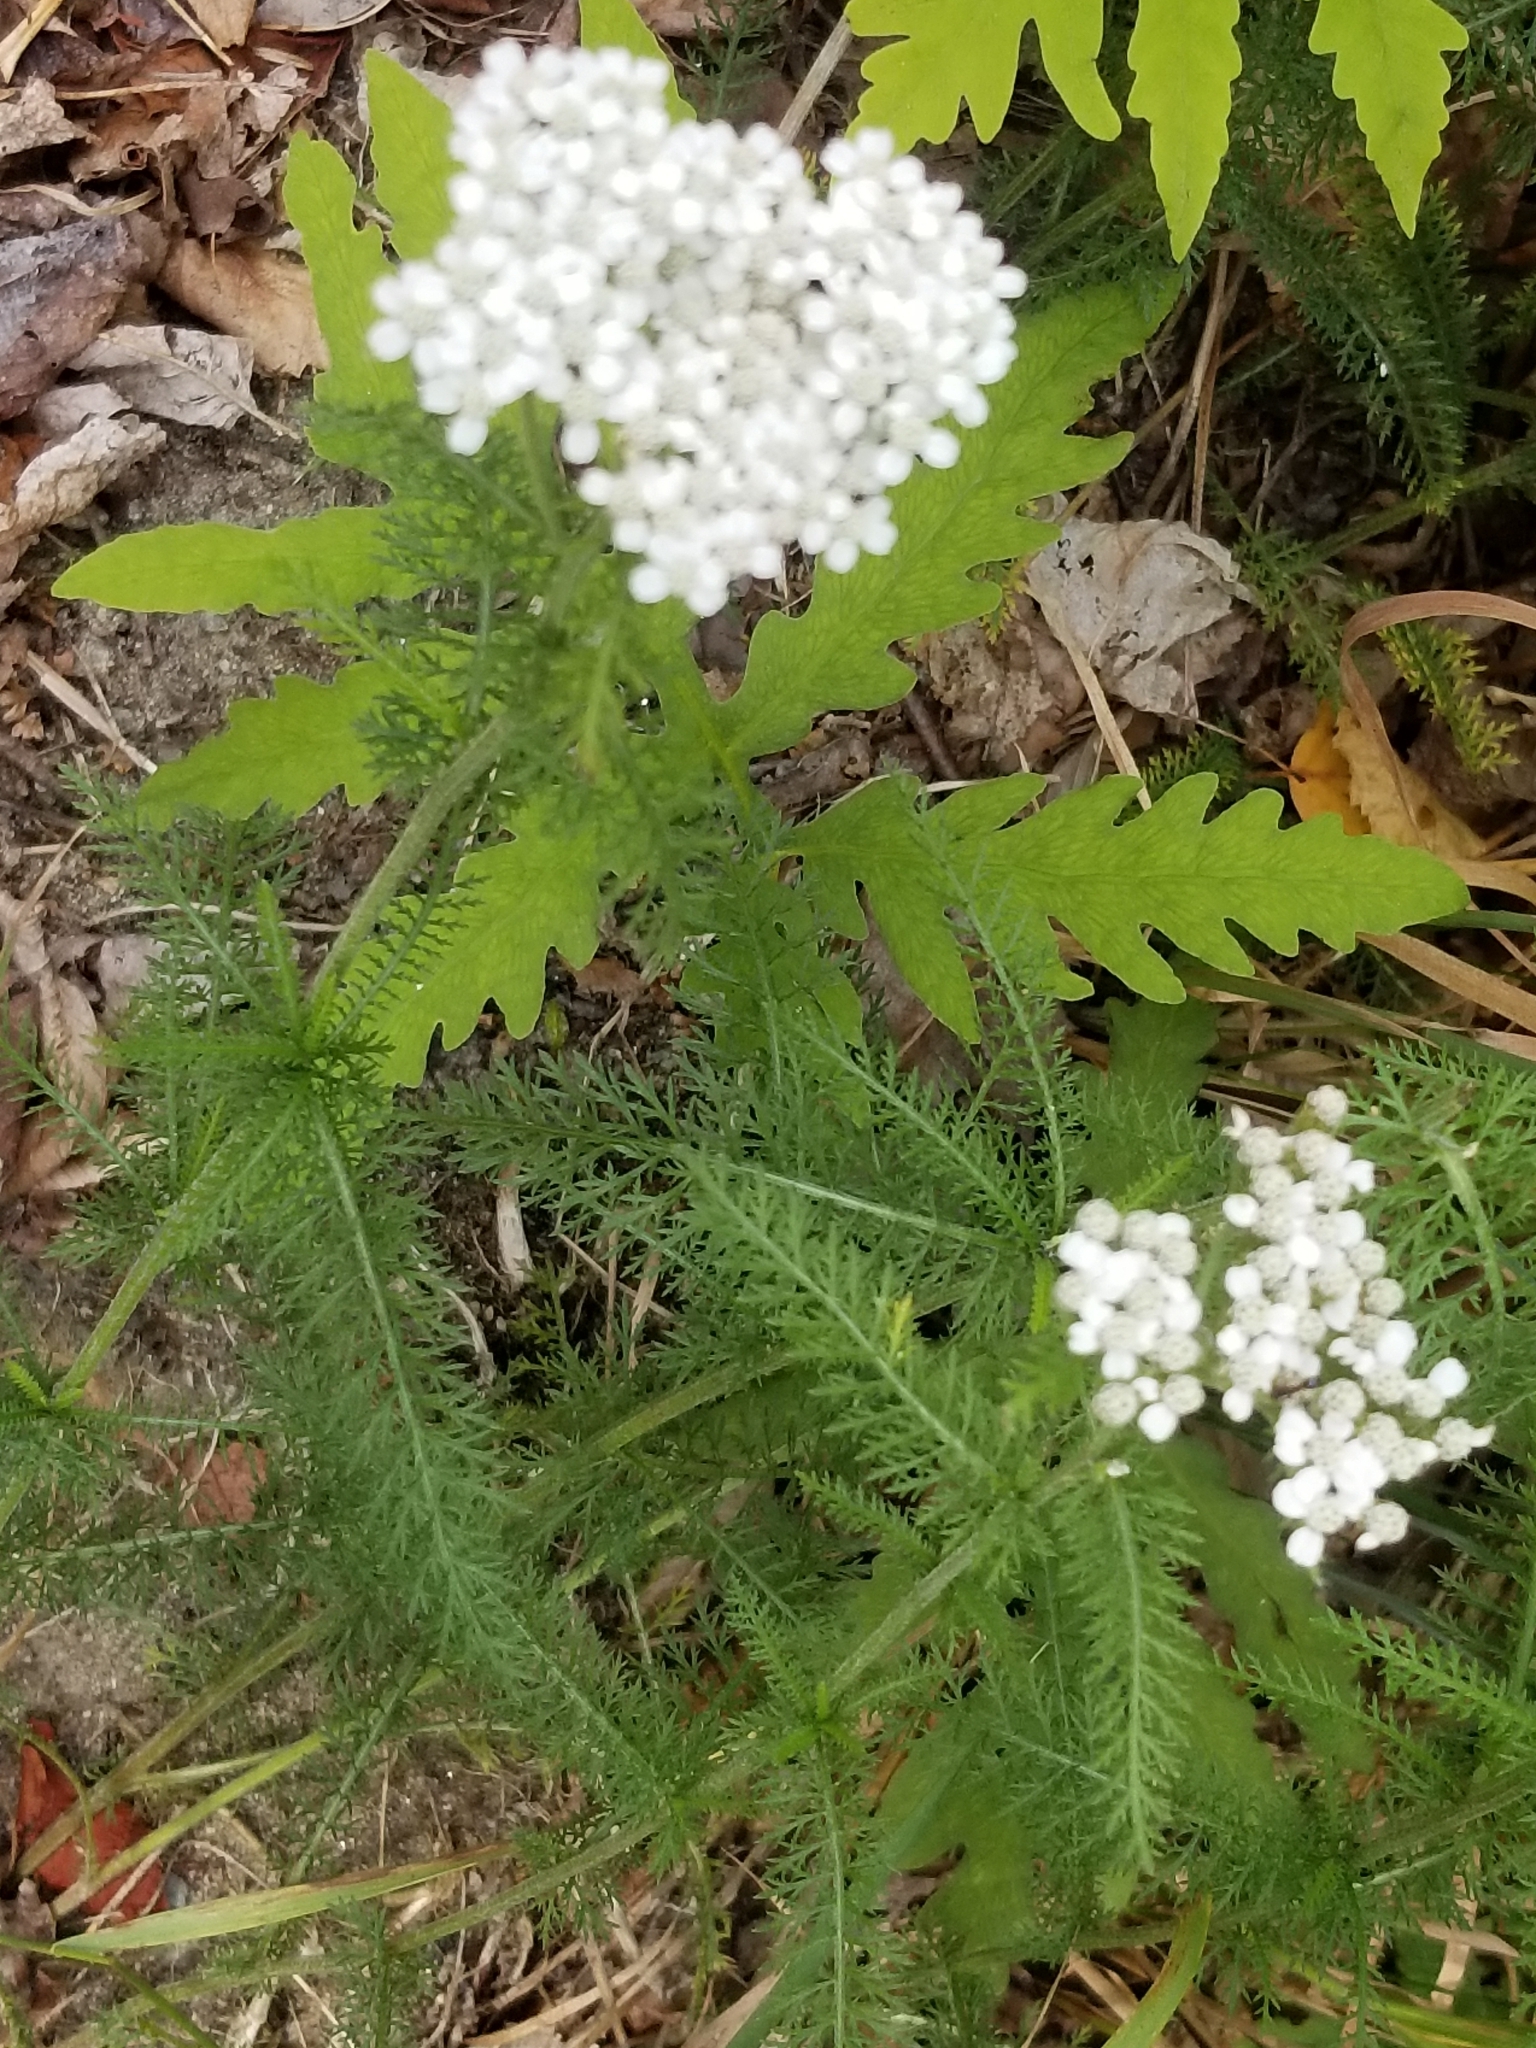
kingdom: Plantae
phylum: Tracheophyta
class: Magnoliopsida
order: Asterales
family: Asteraceae
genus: Achillea
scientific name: Achillea millefolium
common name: Yarrow
